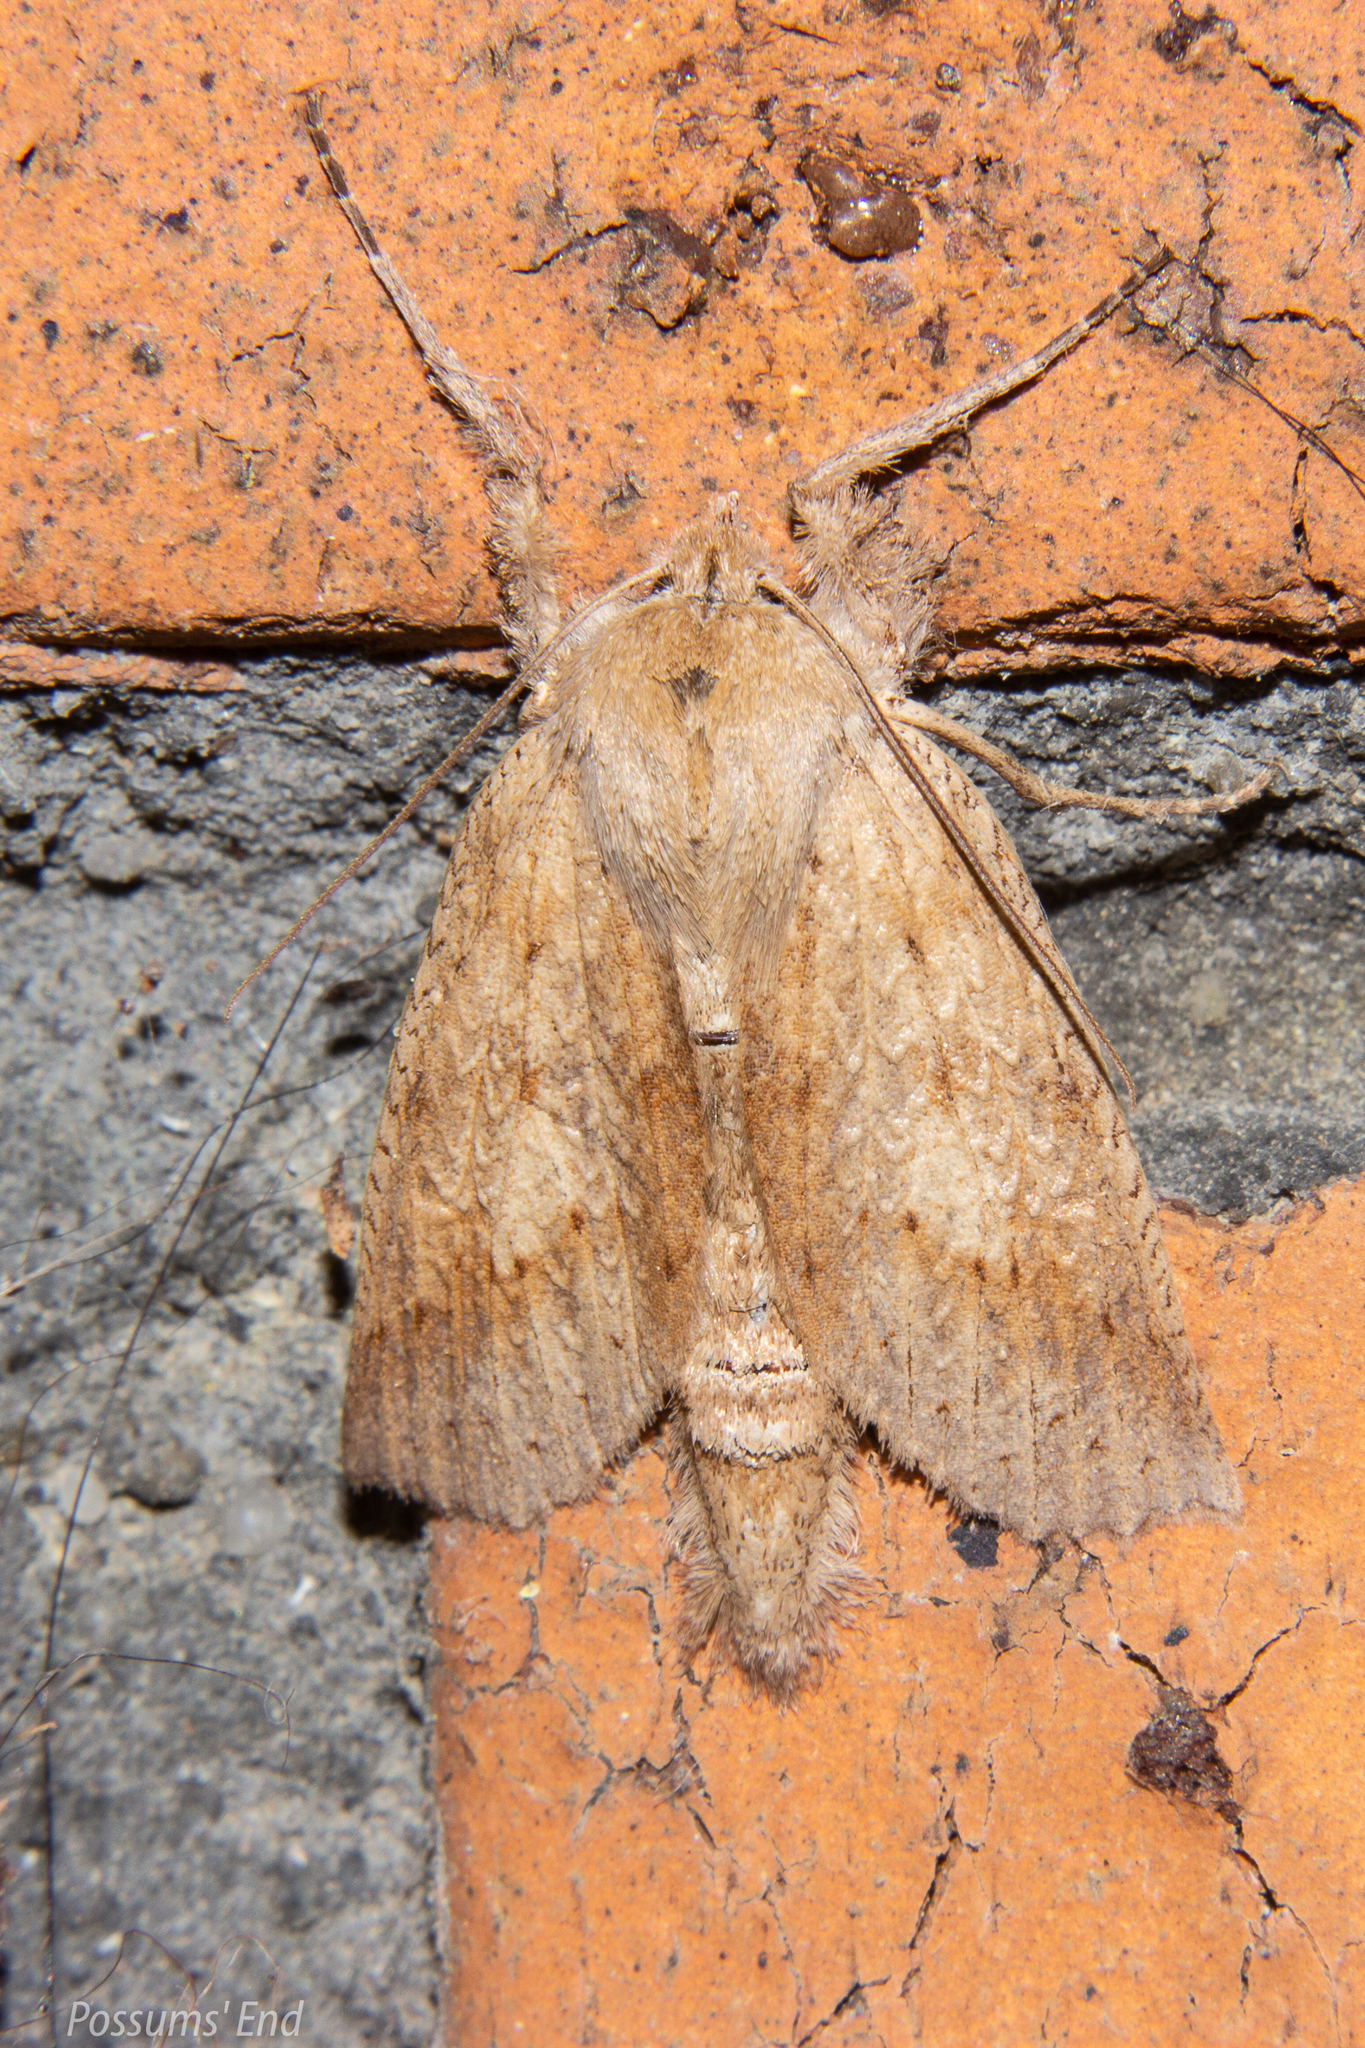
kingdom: Animalia
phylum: Arthropoda
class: Insecta
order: Lepidoptera
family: Geometridae
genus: Declana
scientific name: Declana leptomera
